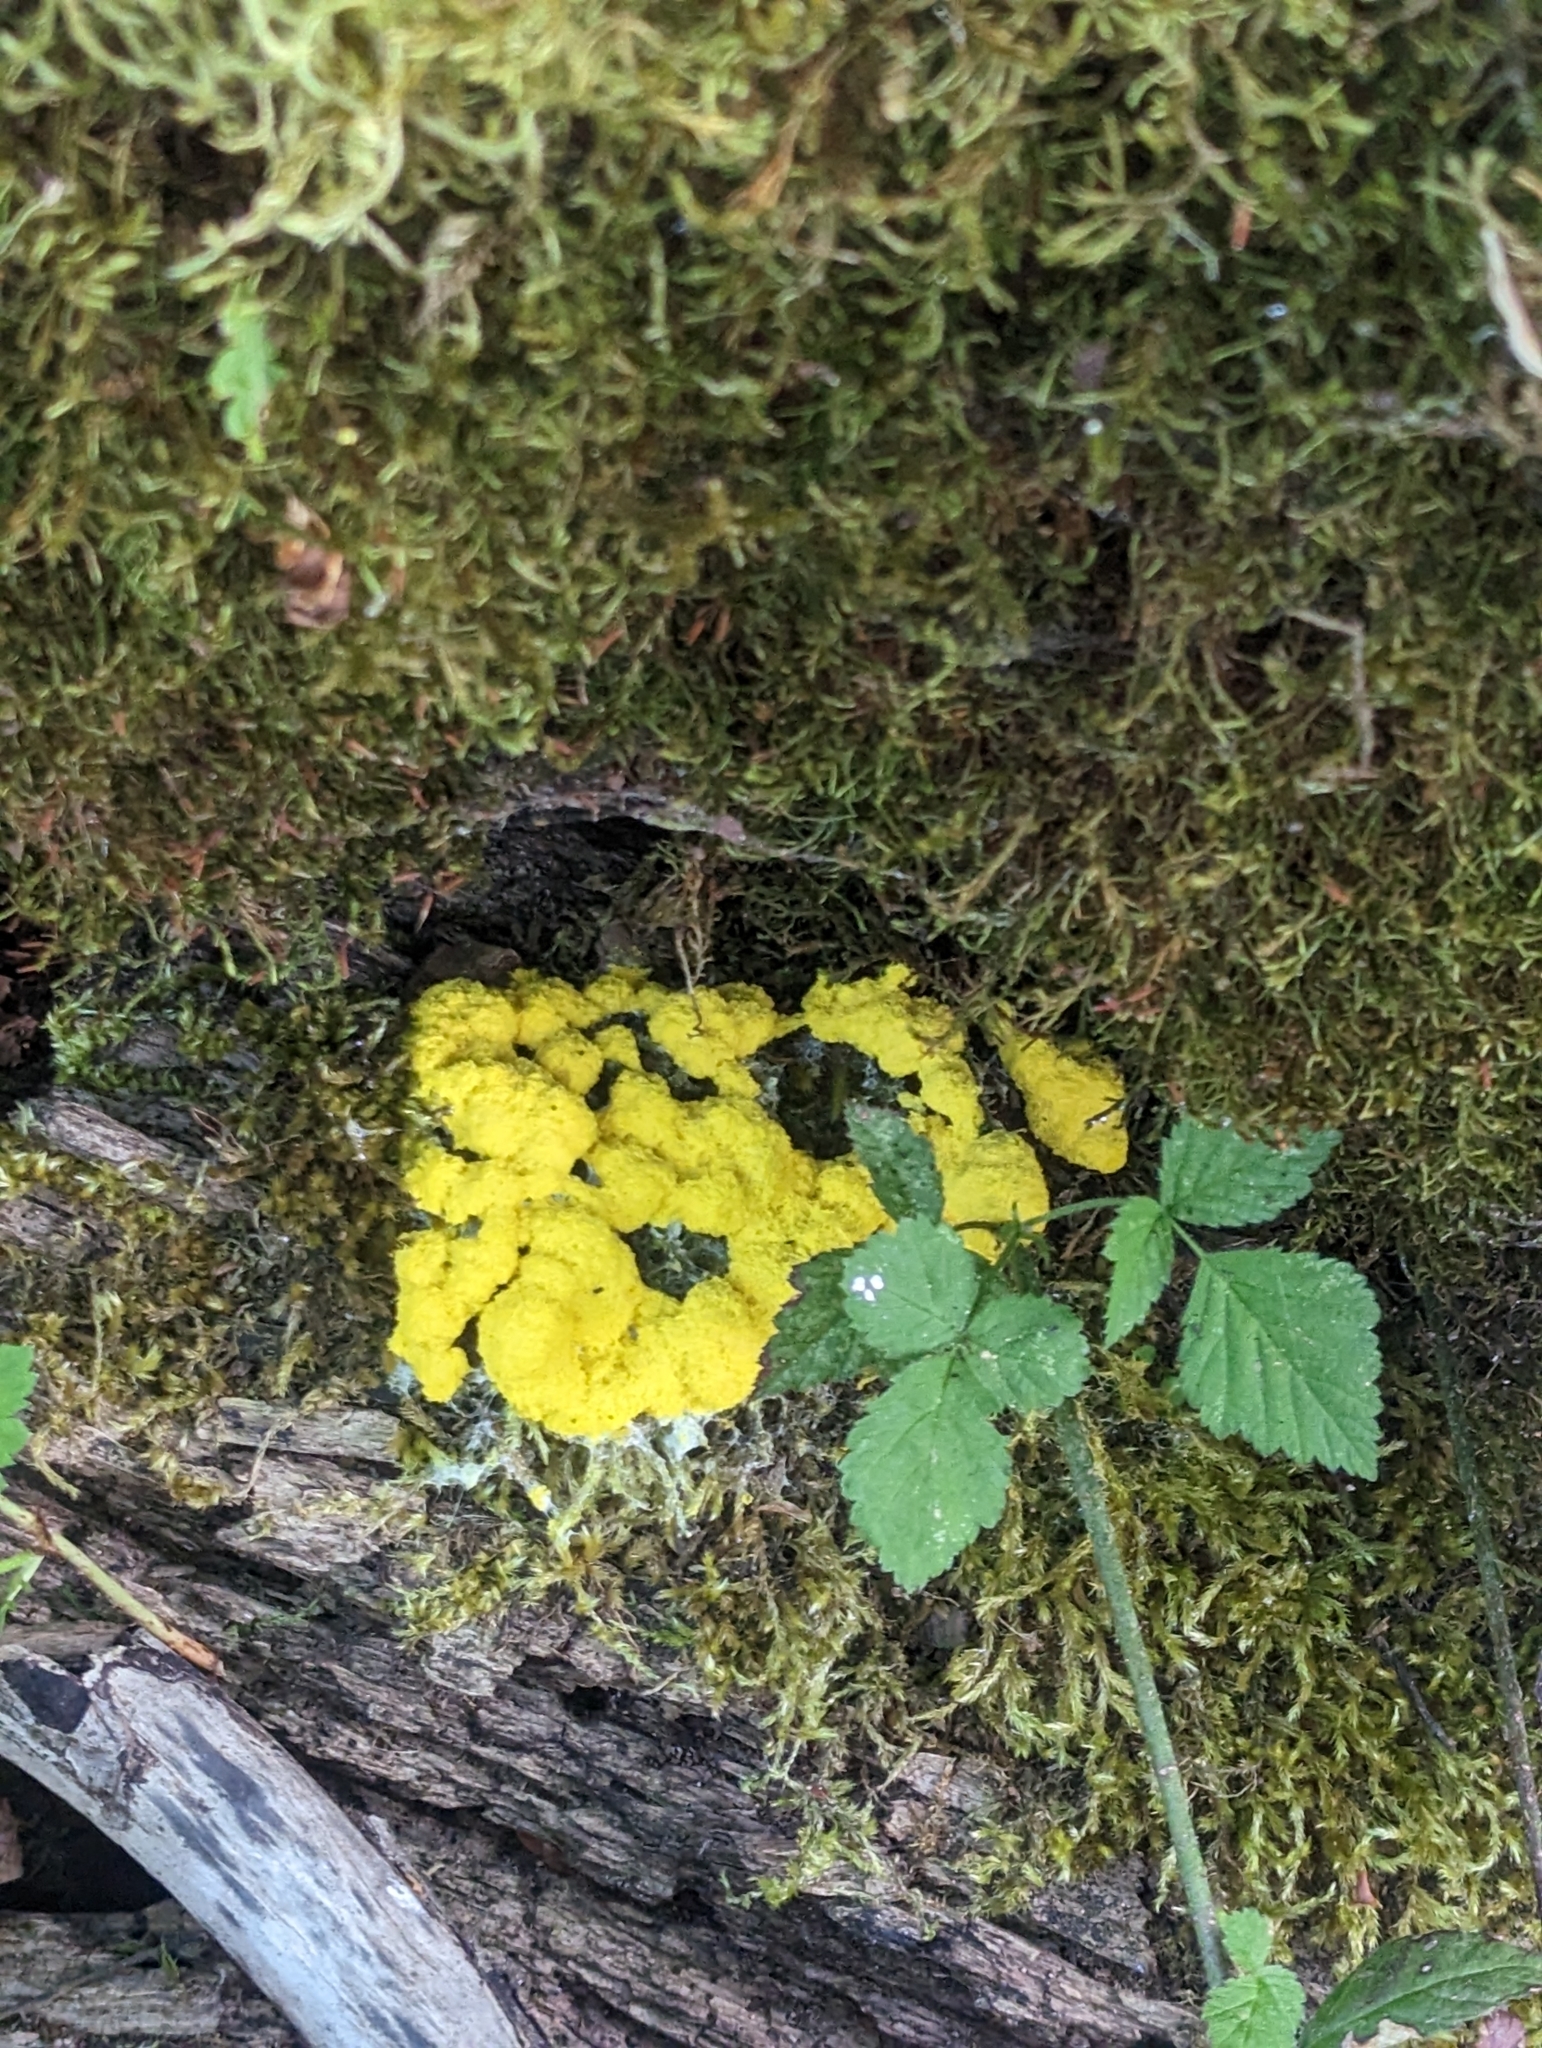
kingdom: Protozoa
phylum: Mycetozoa
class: Myxomycetes
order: Physarales
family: Physaraceae
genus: Fuligo
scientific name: Fuligo septica
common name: Dog vomit slime mold
